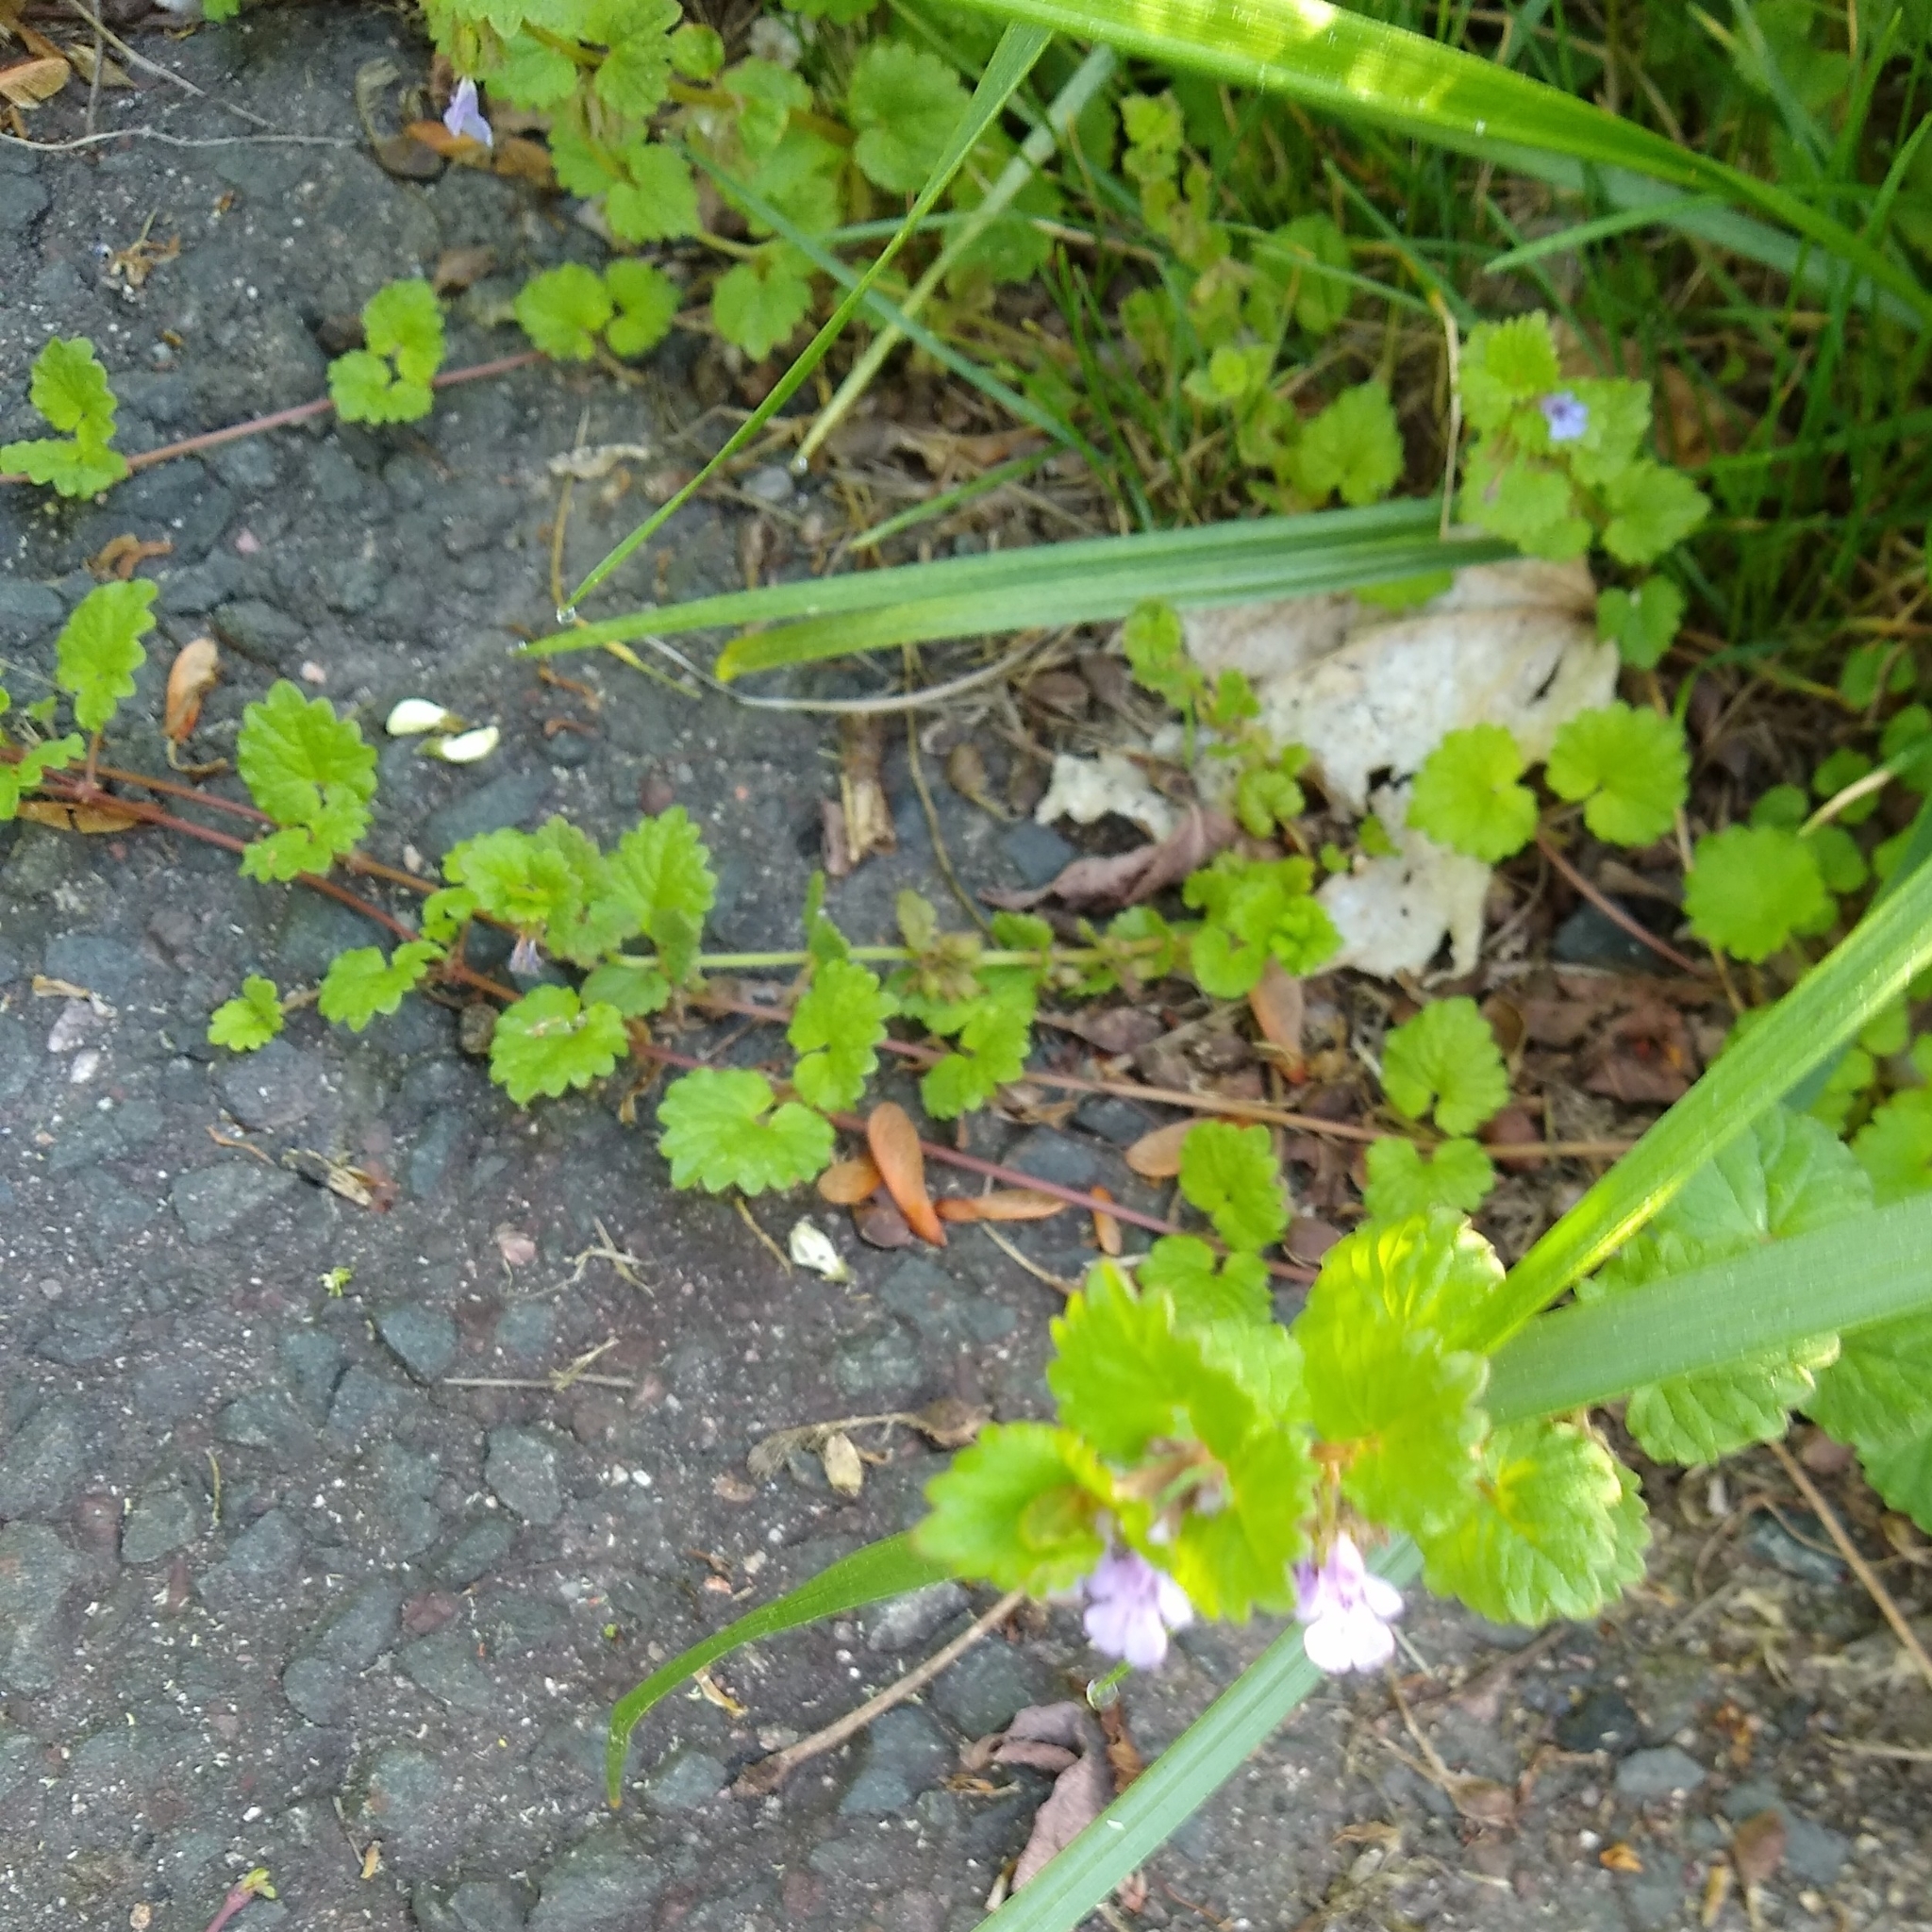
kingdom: Plantae
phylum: Tracheophyta
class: Magnoliopsida
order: Lamiales
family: Lamiaceae
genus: Glechoma
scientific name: Glechoma hederacea
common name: Ground ivy
